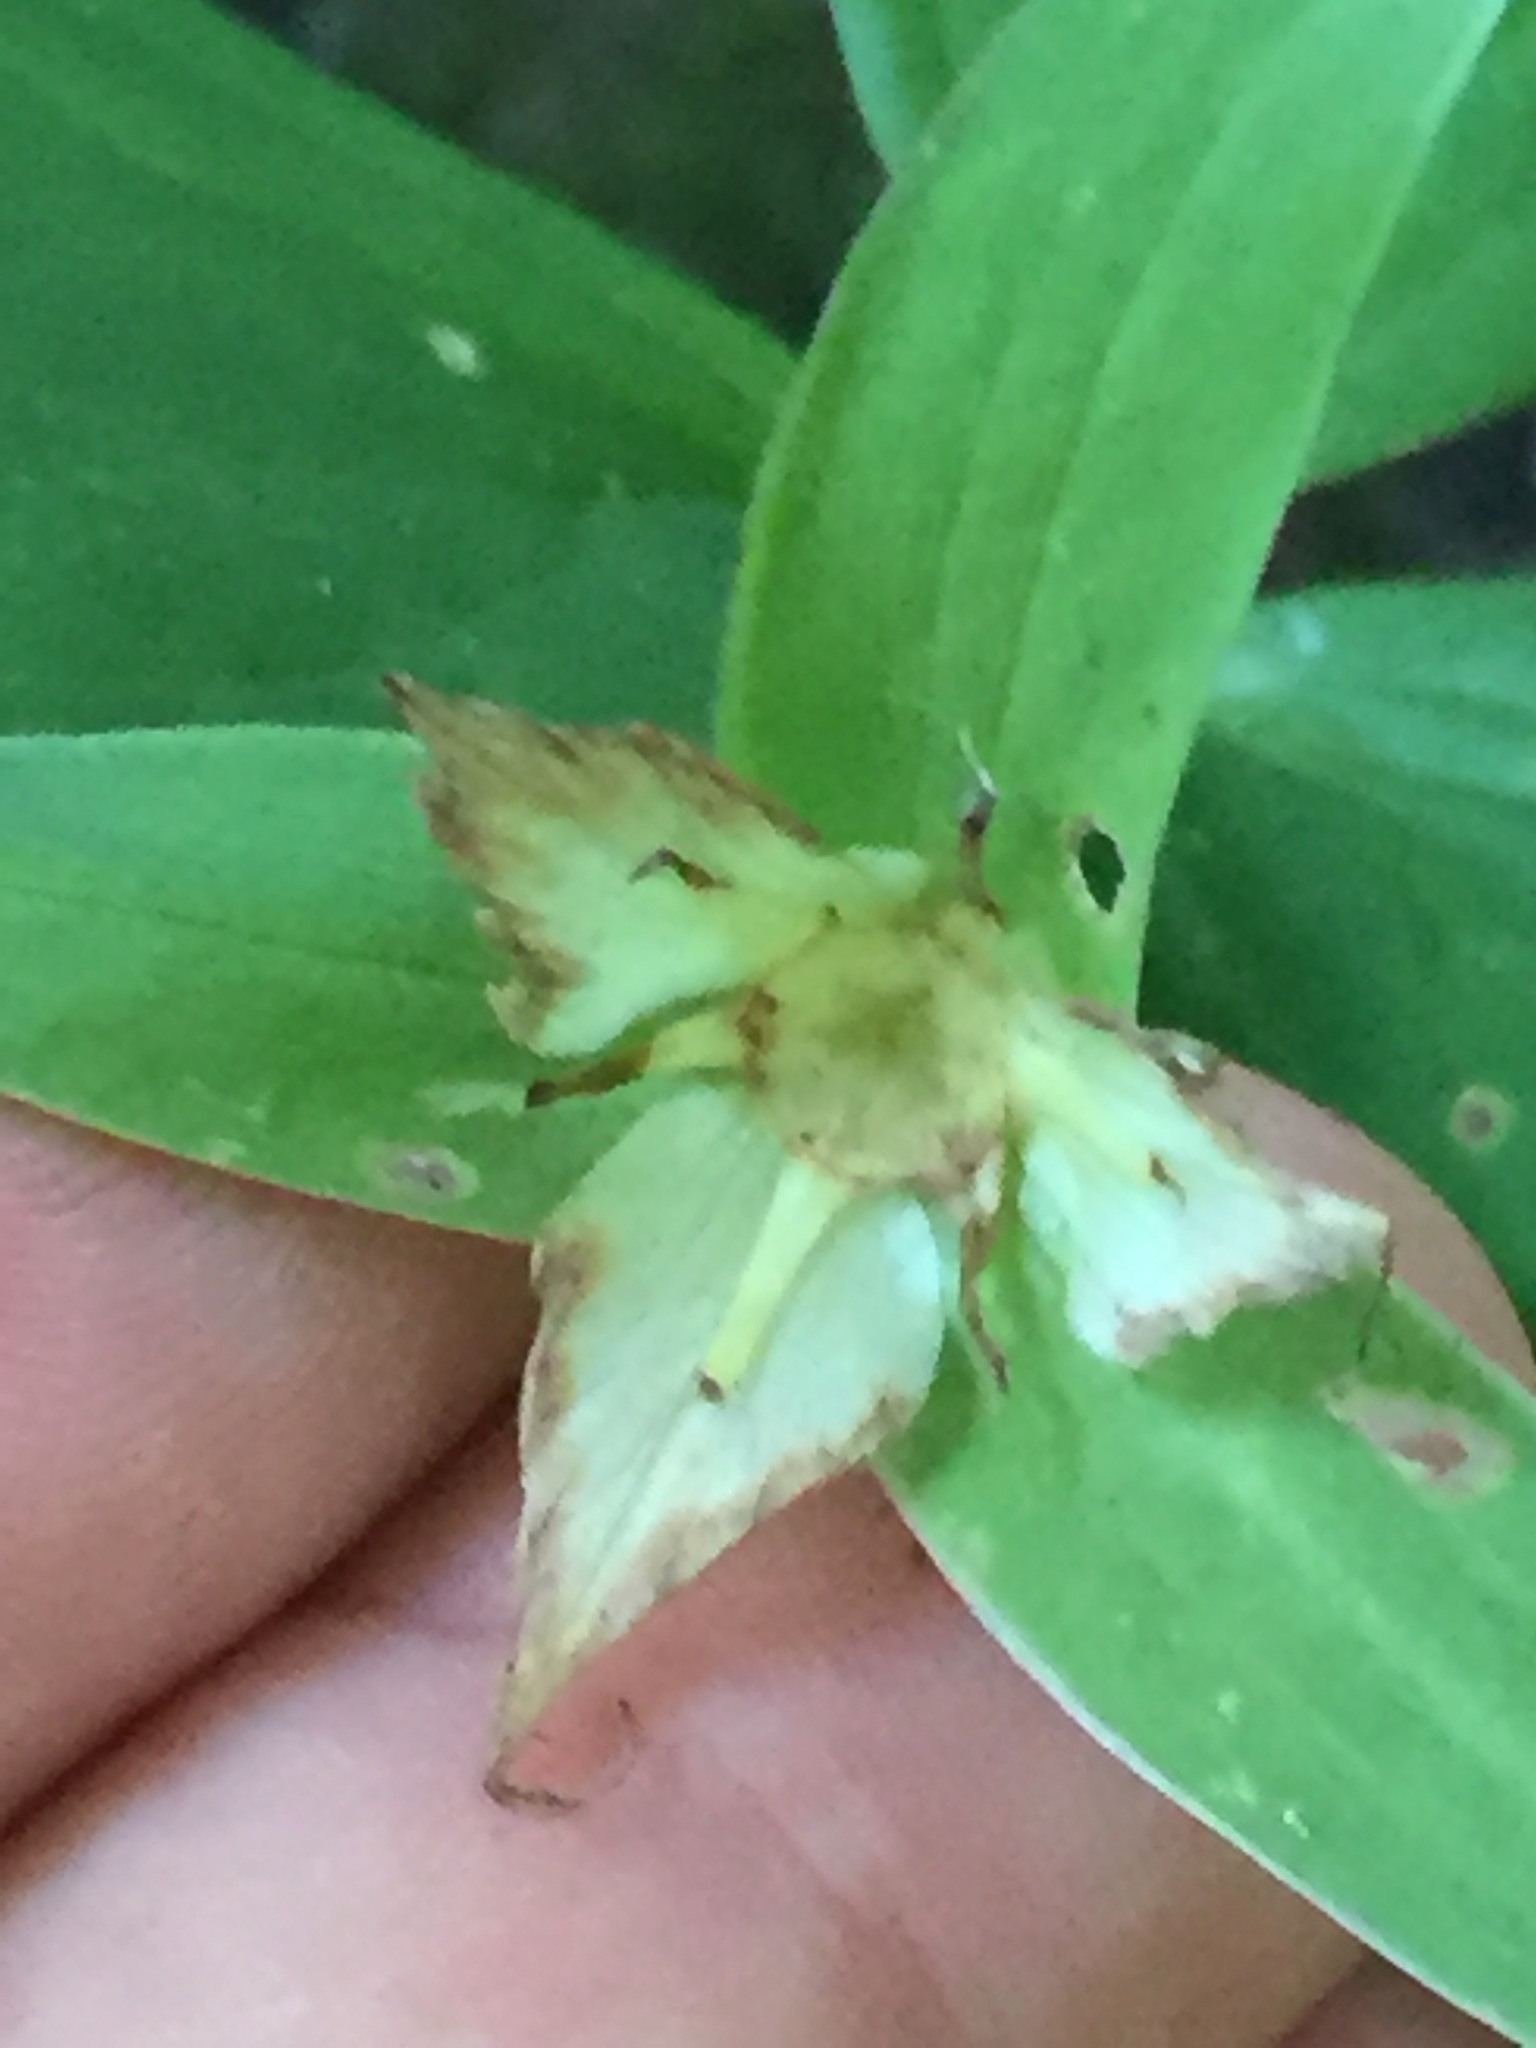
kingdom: Plantae
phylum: Tracheophyta
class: Liliopsida
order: Liliales
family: Melanthiaceae
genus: Trillium
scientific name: Trillium grandiflorum
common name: Great white trillium
